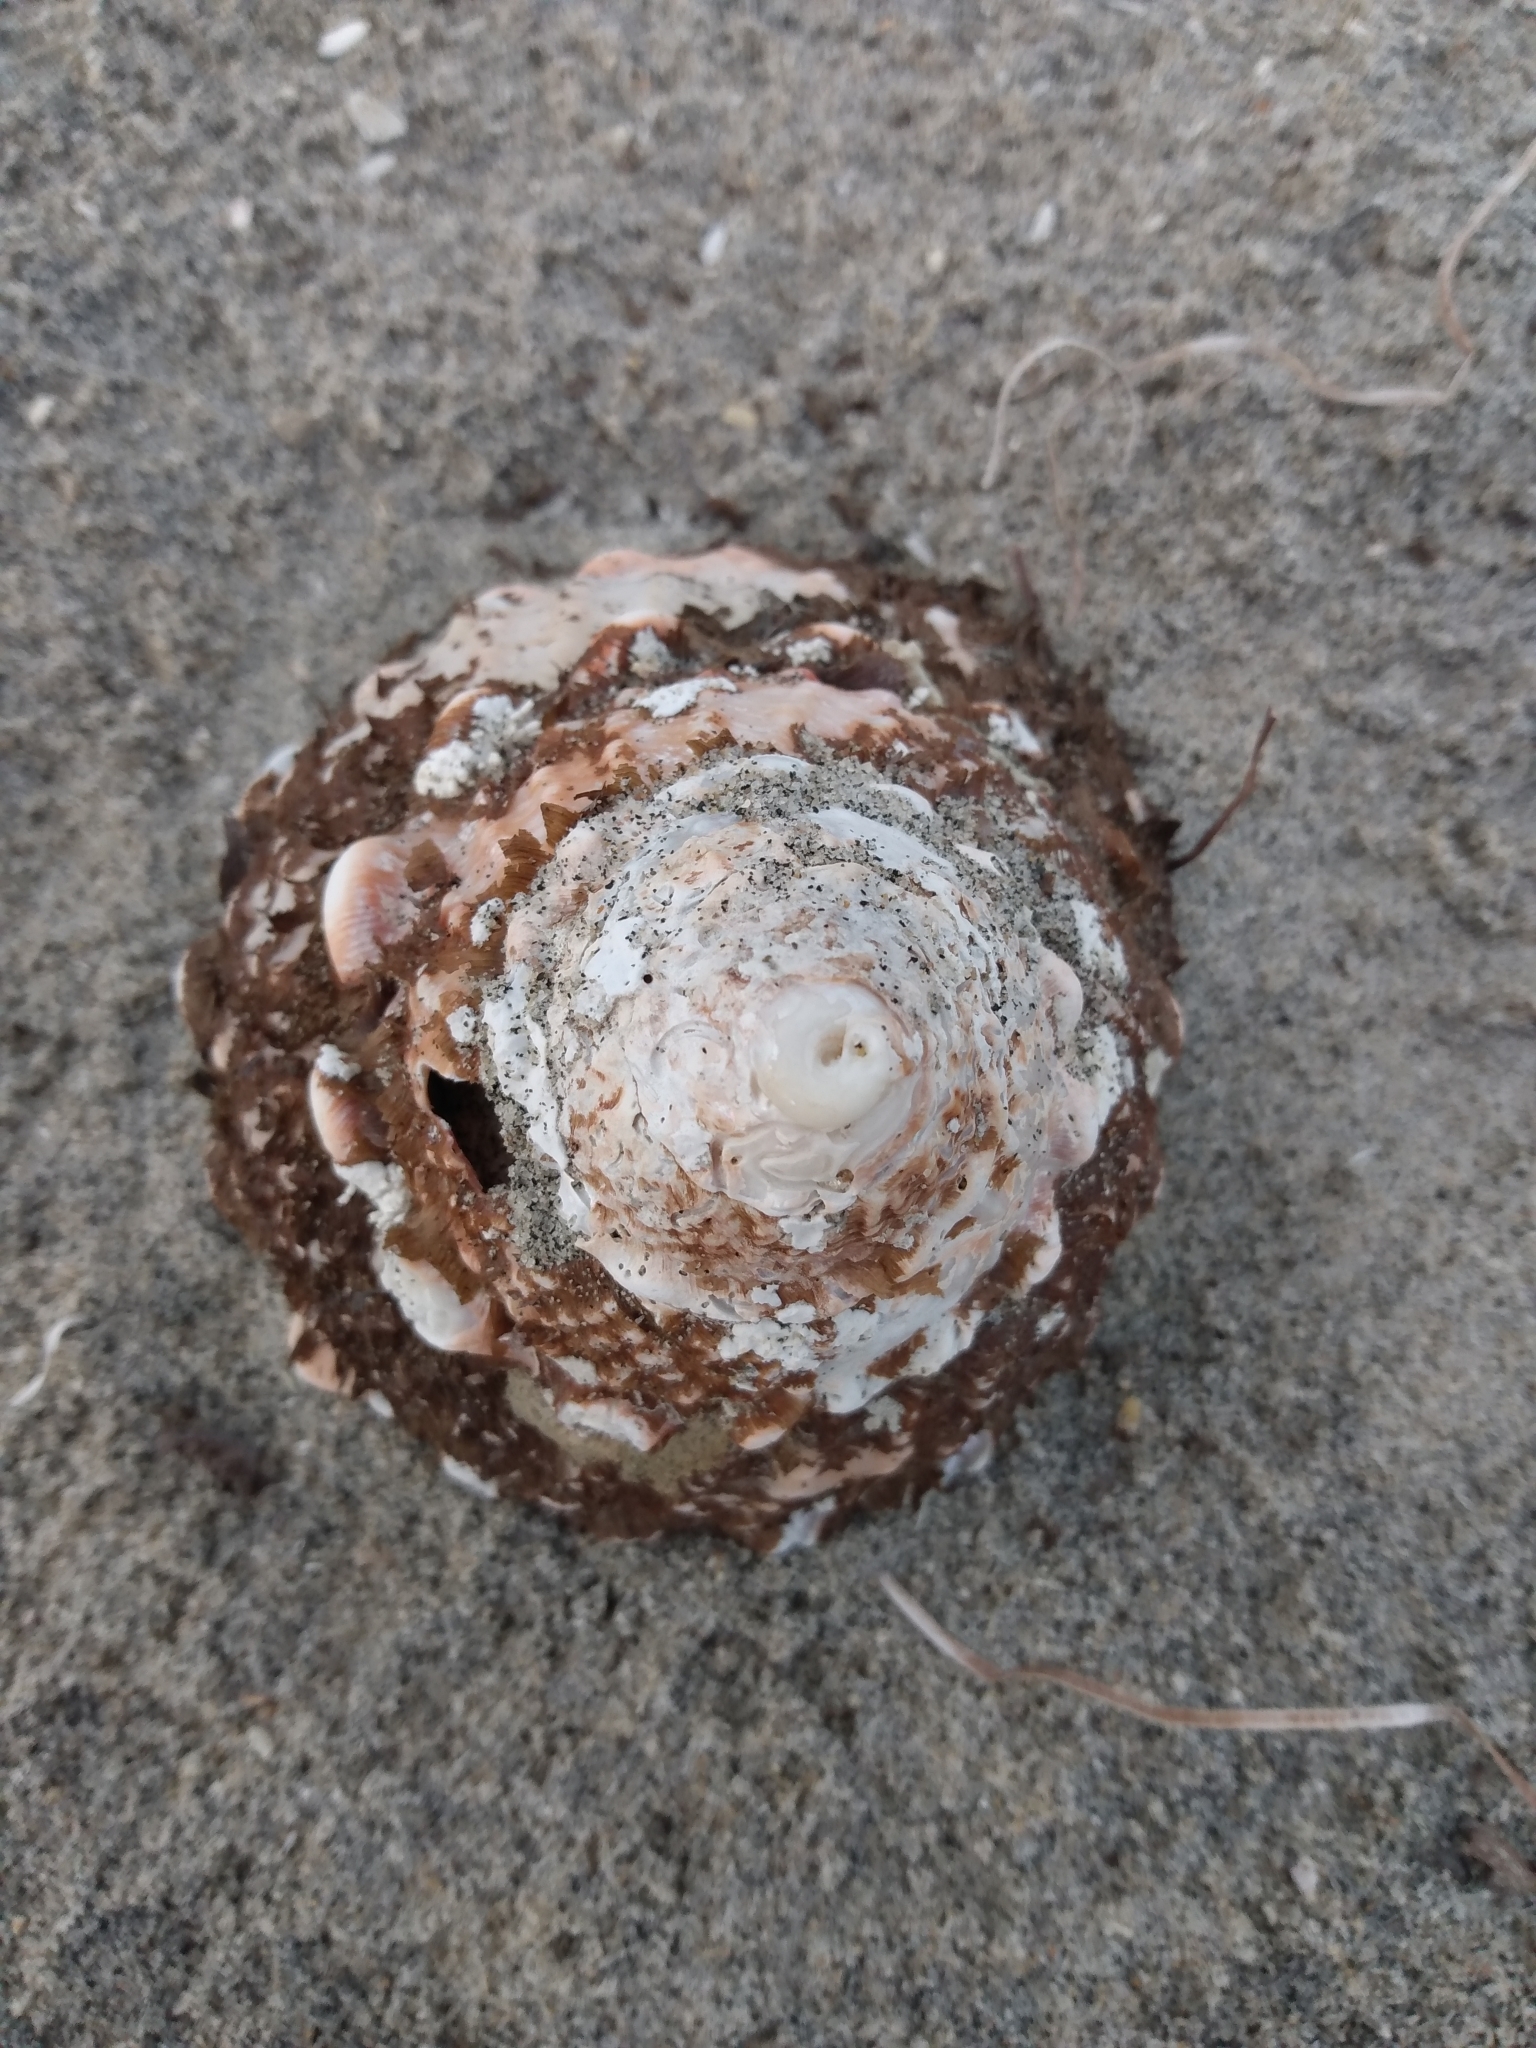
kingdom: Animalia
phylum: Mollusca
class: Gastropoda
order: Trochida
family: Turbinidae
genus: Megastraea
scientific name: Megastraea undosa
